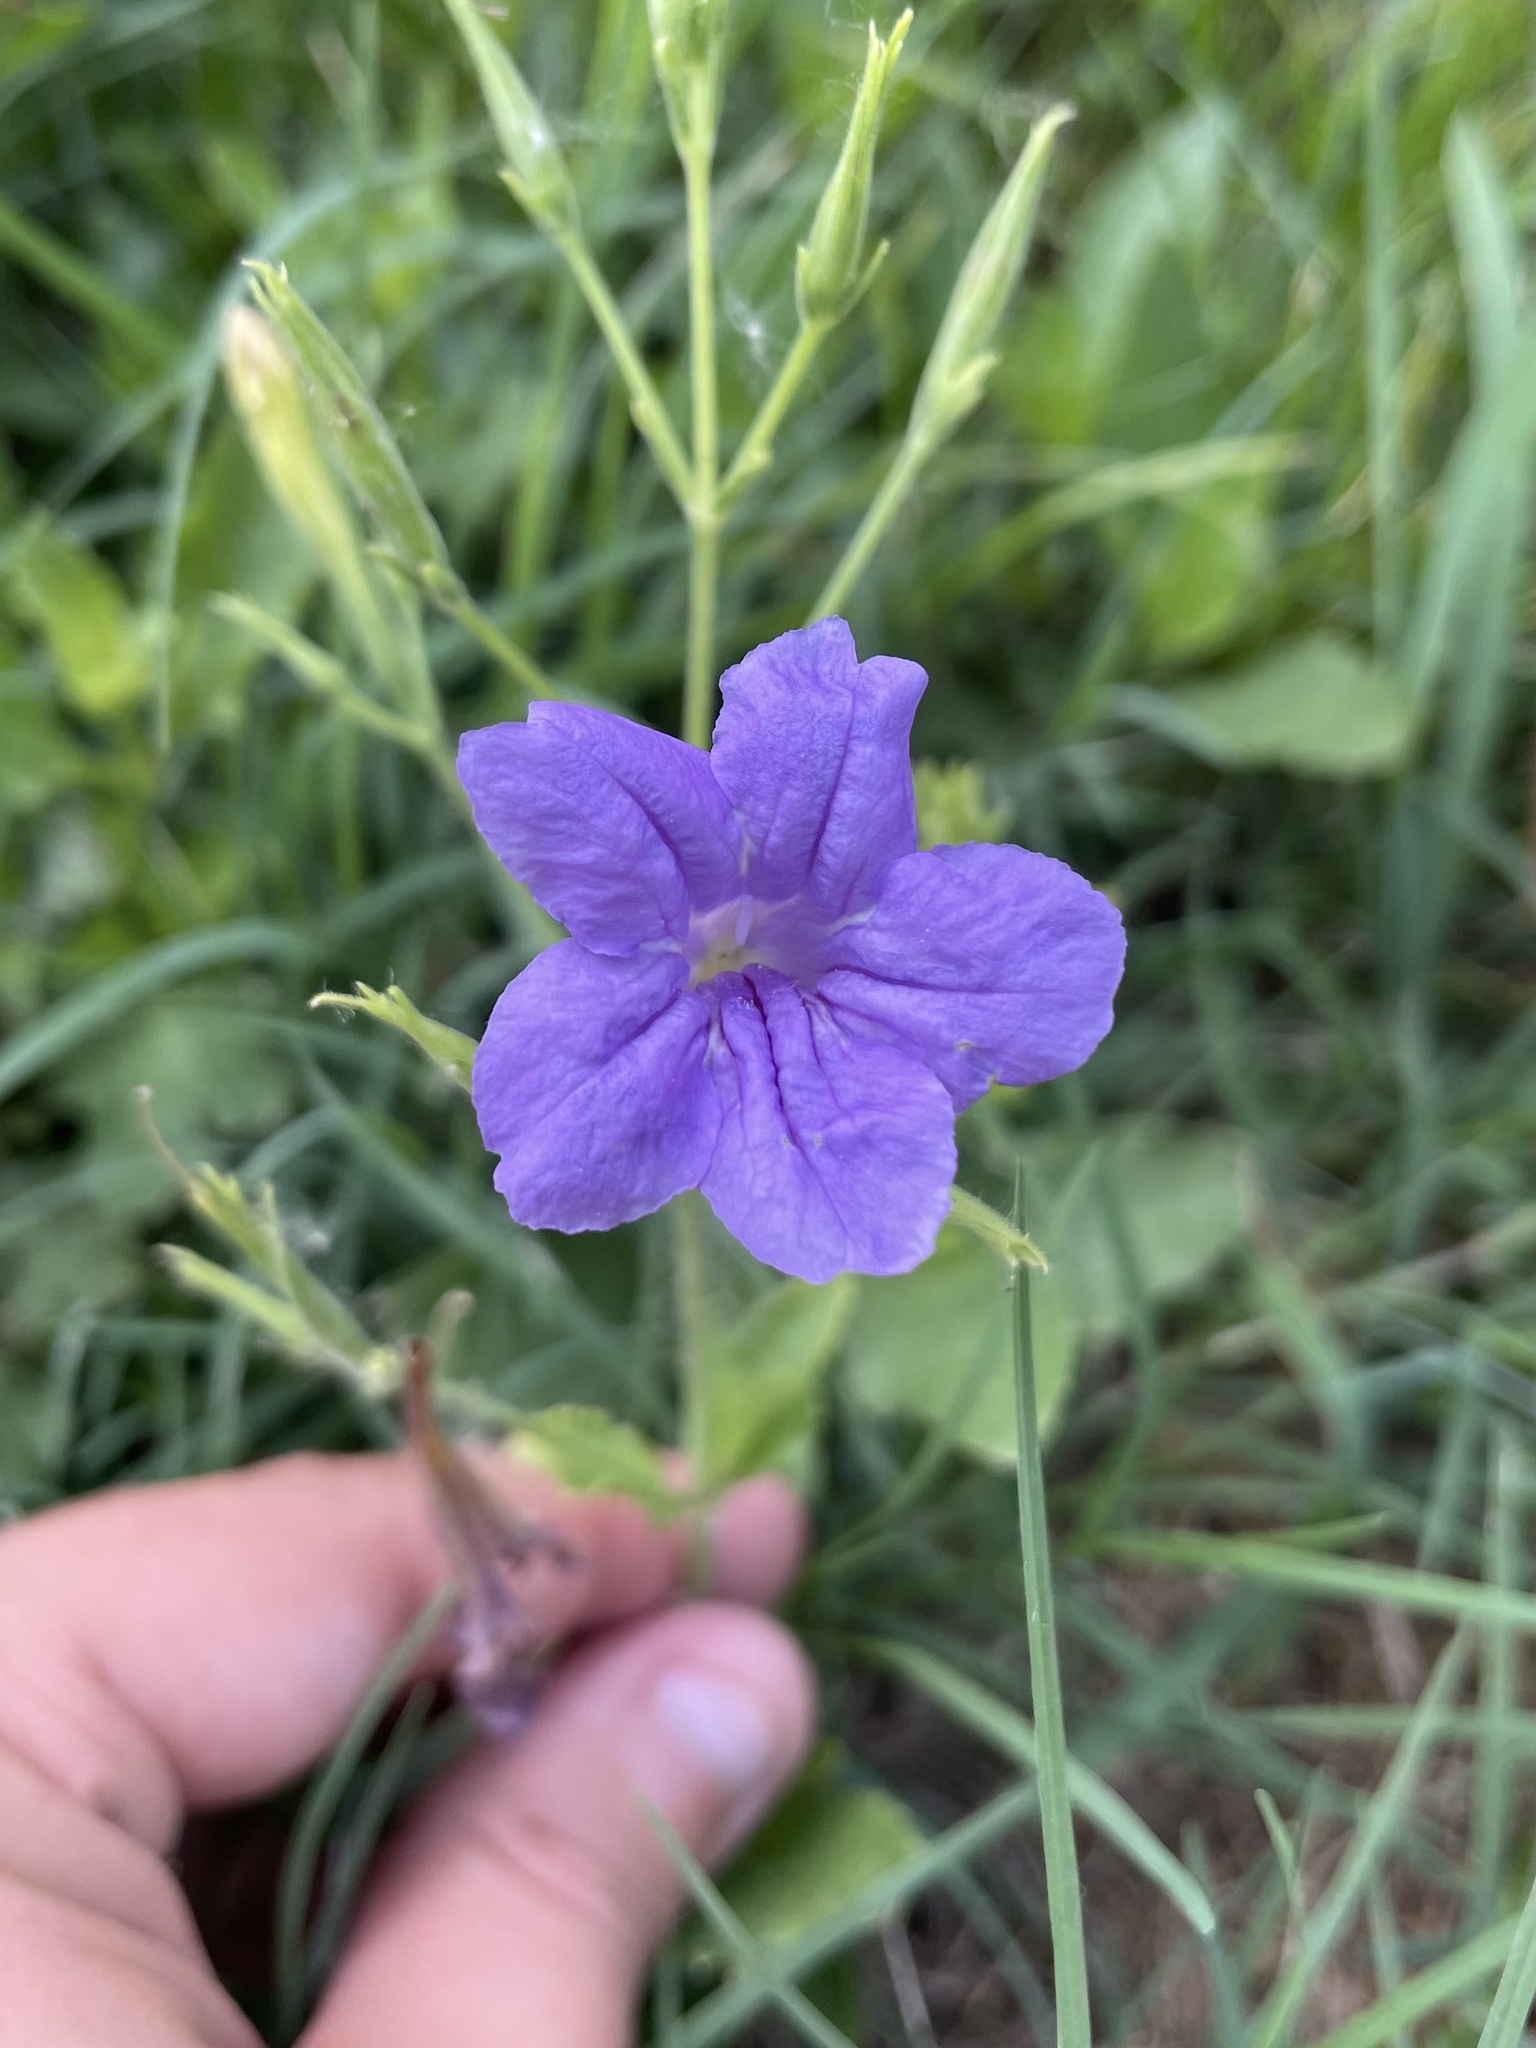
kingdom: Plantae
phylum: Tracheophyta
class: Magnoliopsida
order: Lamiales
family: Acanthaceae
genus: Ruellia
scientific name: Ruellia ciliatiflora
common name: Hairyflower wild petunia
